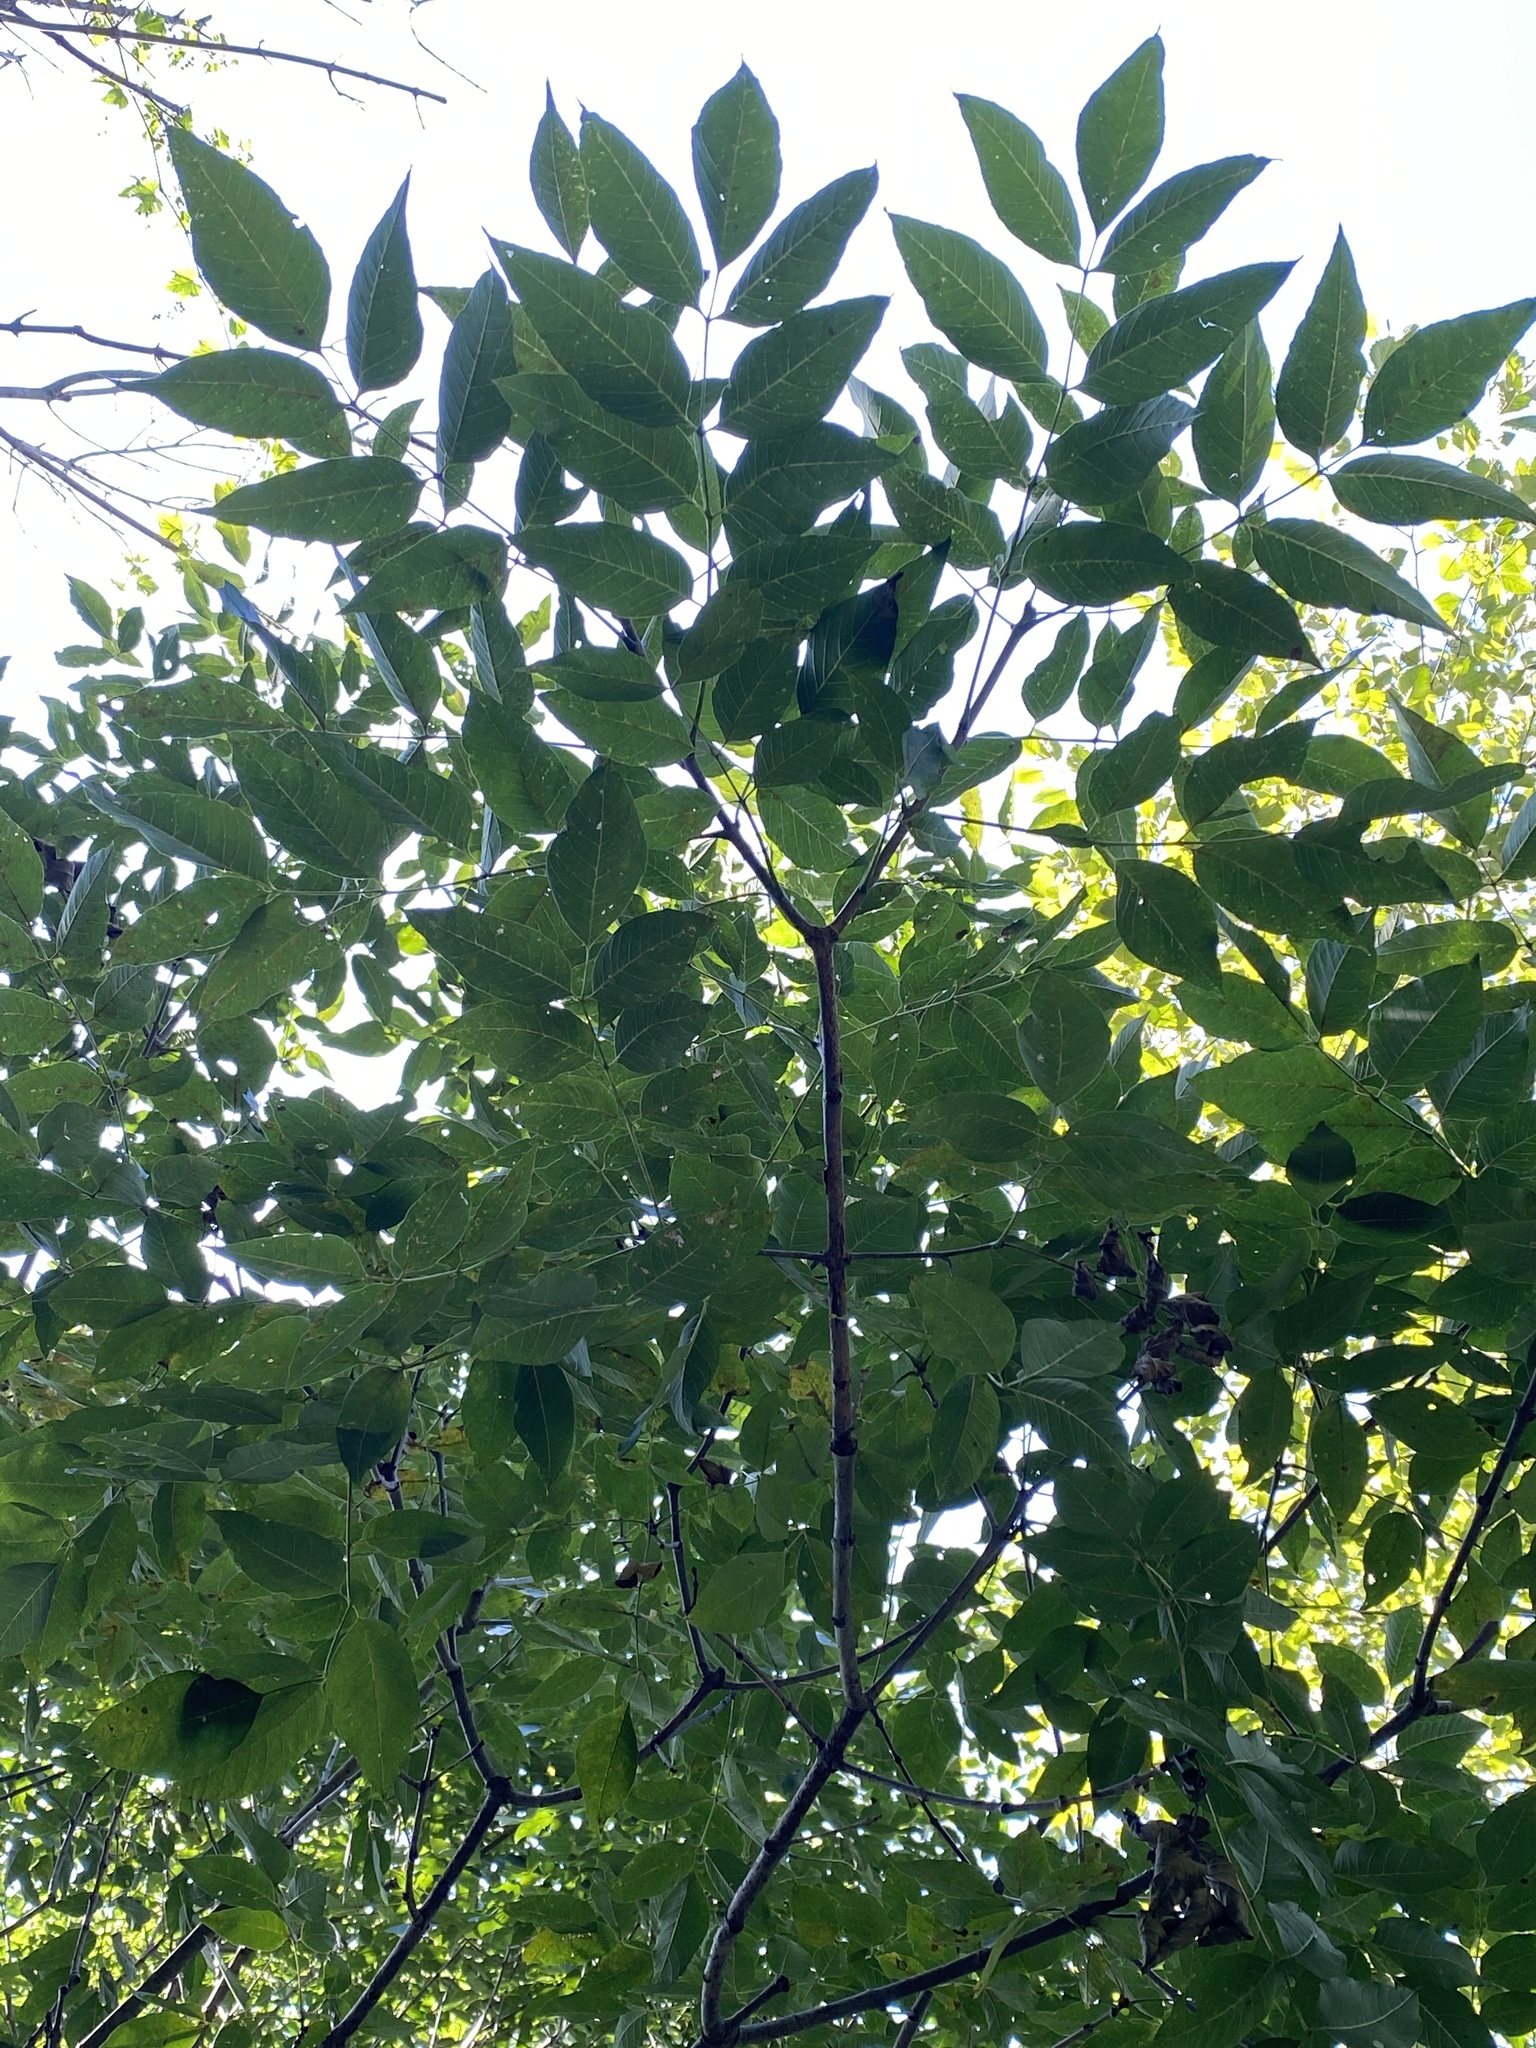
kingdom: Plantae
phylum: Tracheophyta
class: Magnoliopsida
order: Lamiales
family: Oleaceae
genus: Fraxinus
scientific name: Fraxinus pennsylvanica
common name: Green ash
